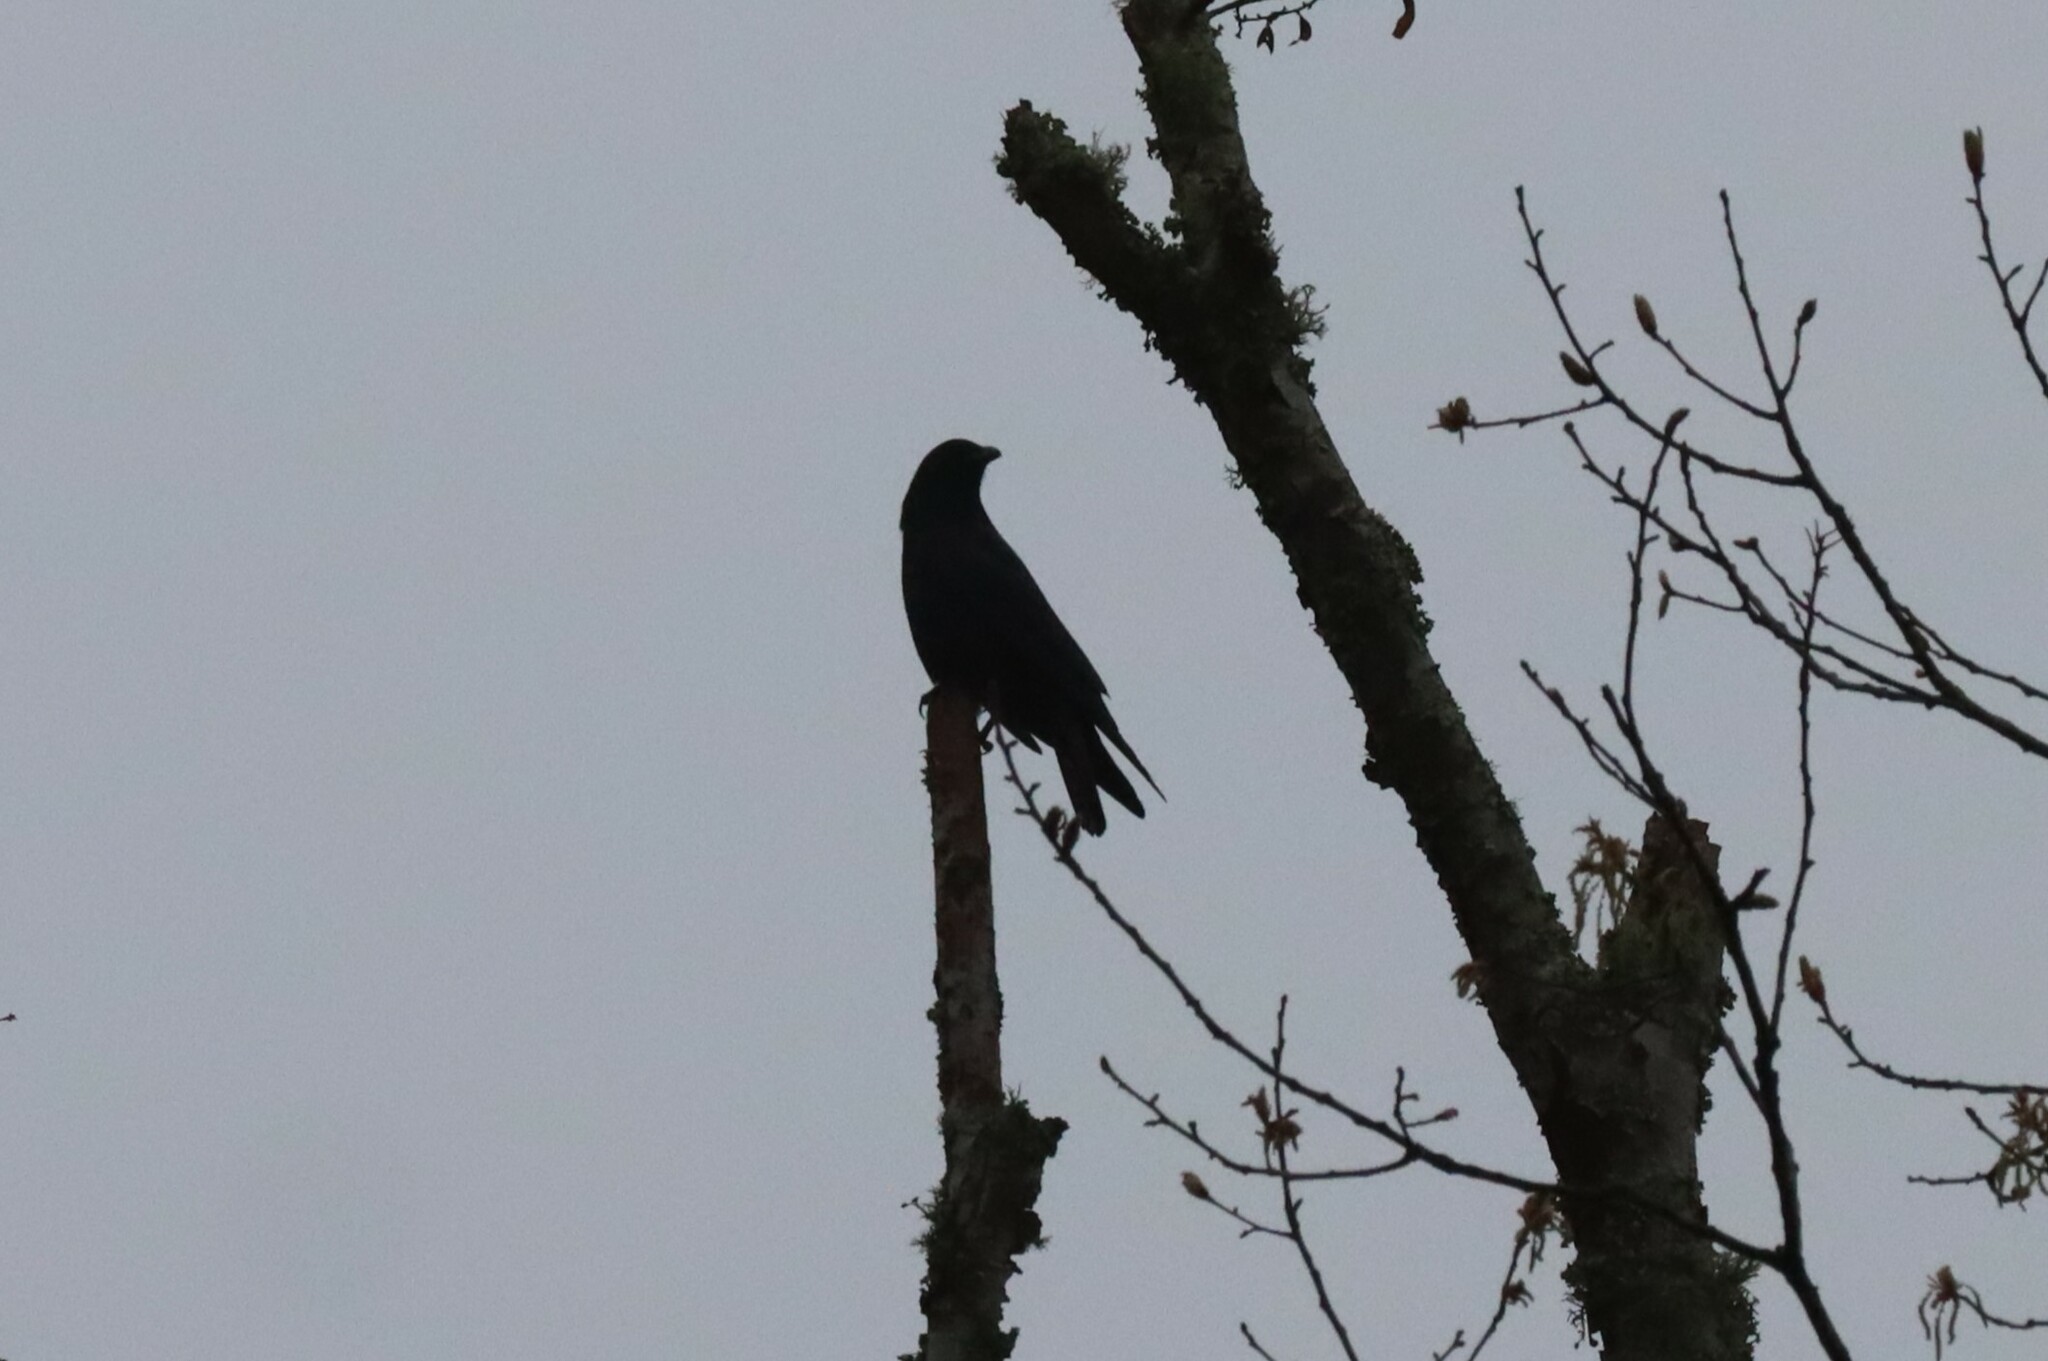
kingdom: Animalia
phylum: Chordata
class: Aves
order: Passeriformes
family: Corvidae
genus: Corvus
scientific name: Corvus ossifragus
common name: Fish crow
